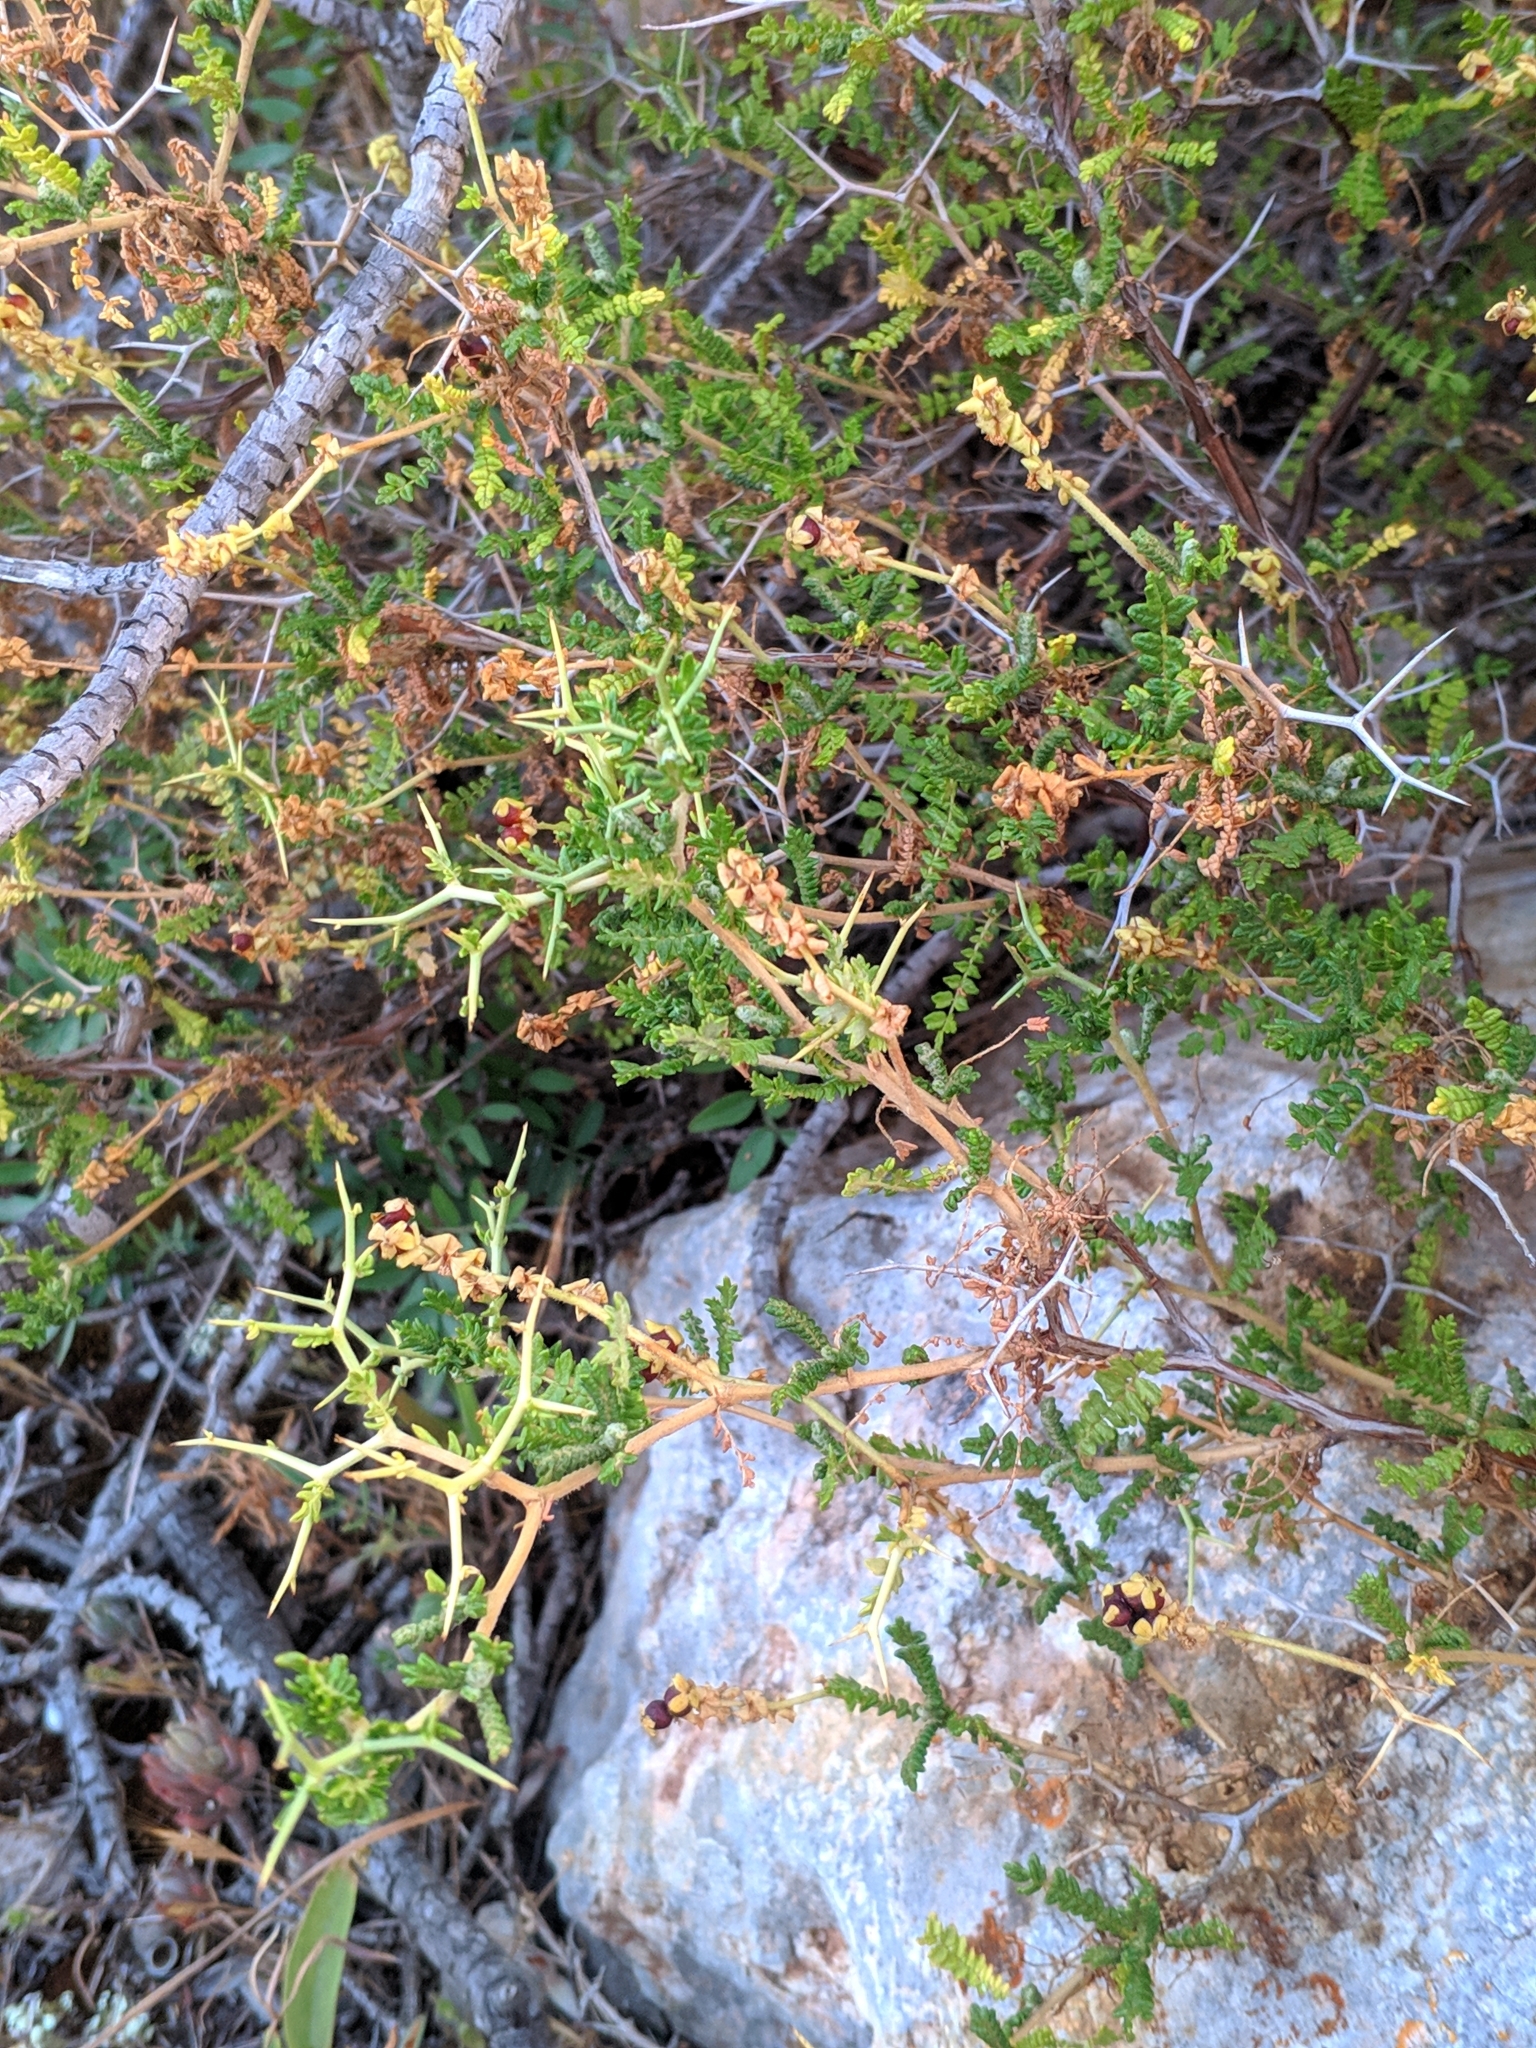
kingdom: Plantae
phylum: Tracheophyta
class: Magnoliopsida
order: Rosales
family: Rosaceae
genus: Sarcopoterium
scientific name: Sarcopoterium spinosum
